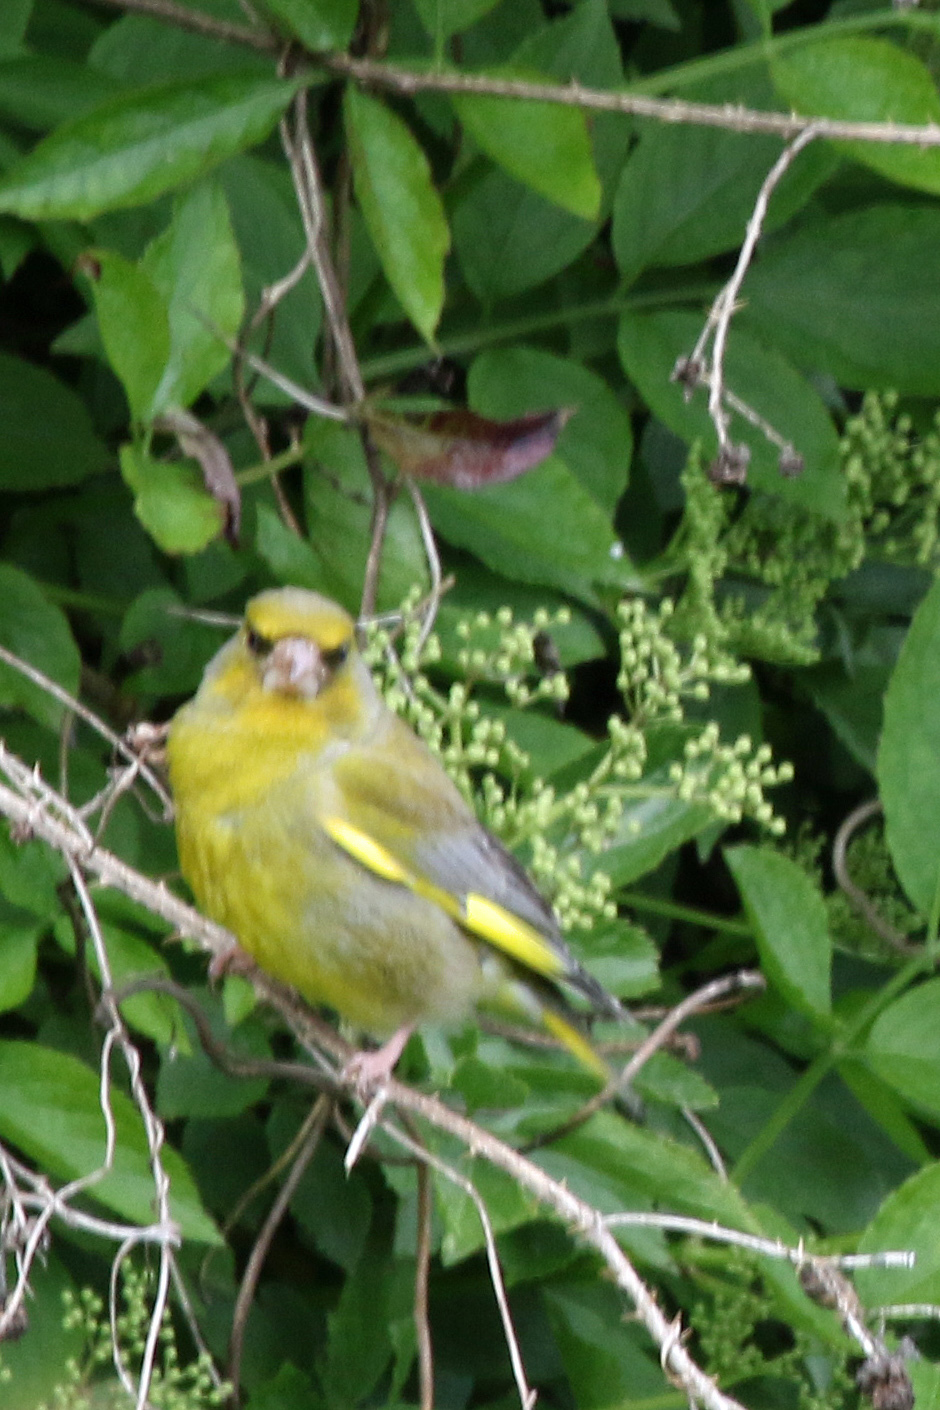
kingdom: Plantae
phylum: Tracheophyta
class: Liliopsida
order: Poales
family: Poaceae
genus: Chloris
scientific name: Chloris chloris
